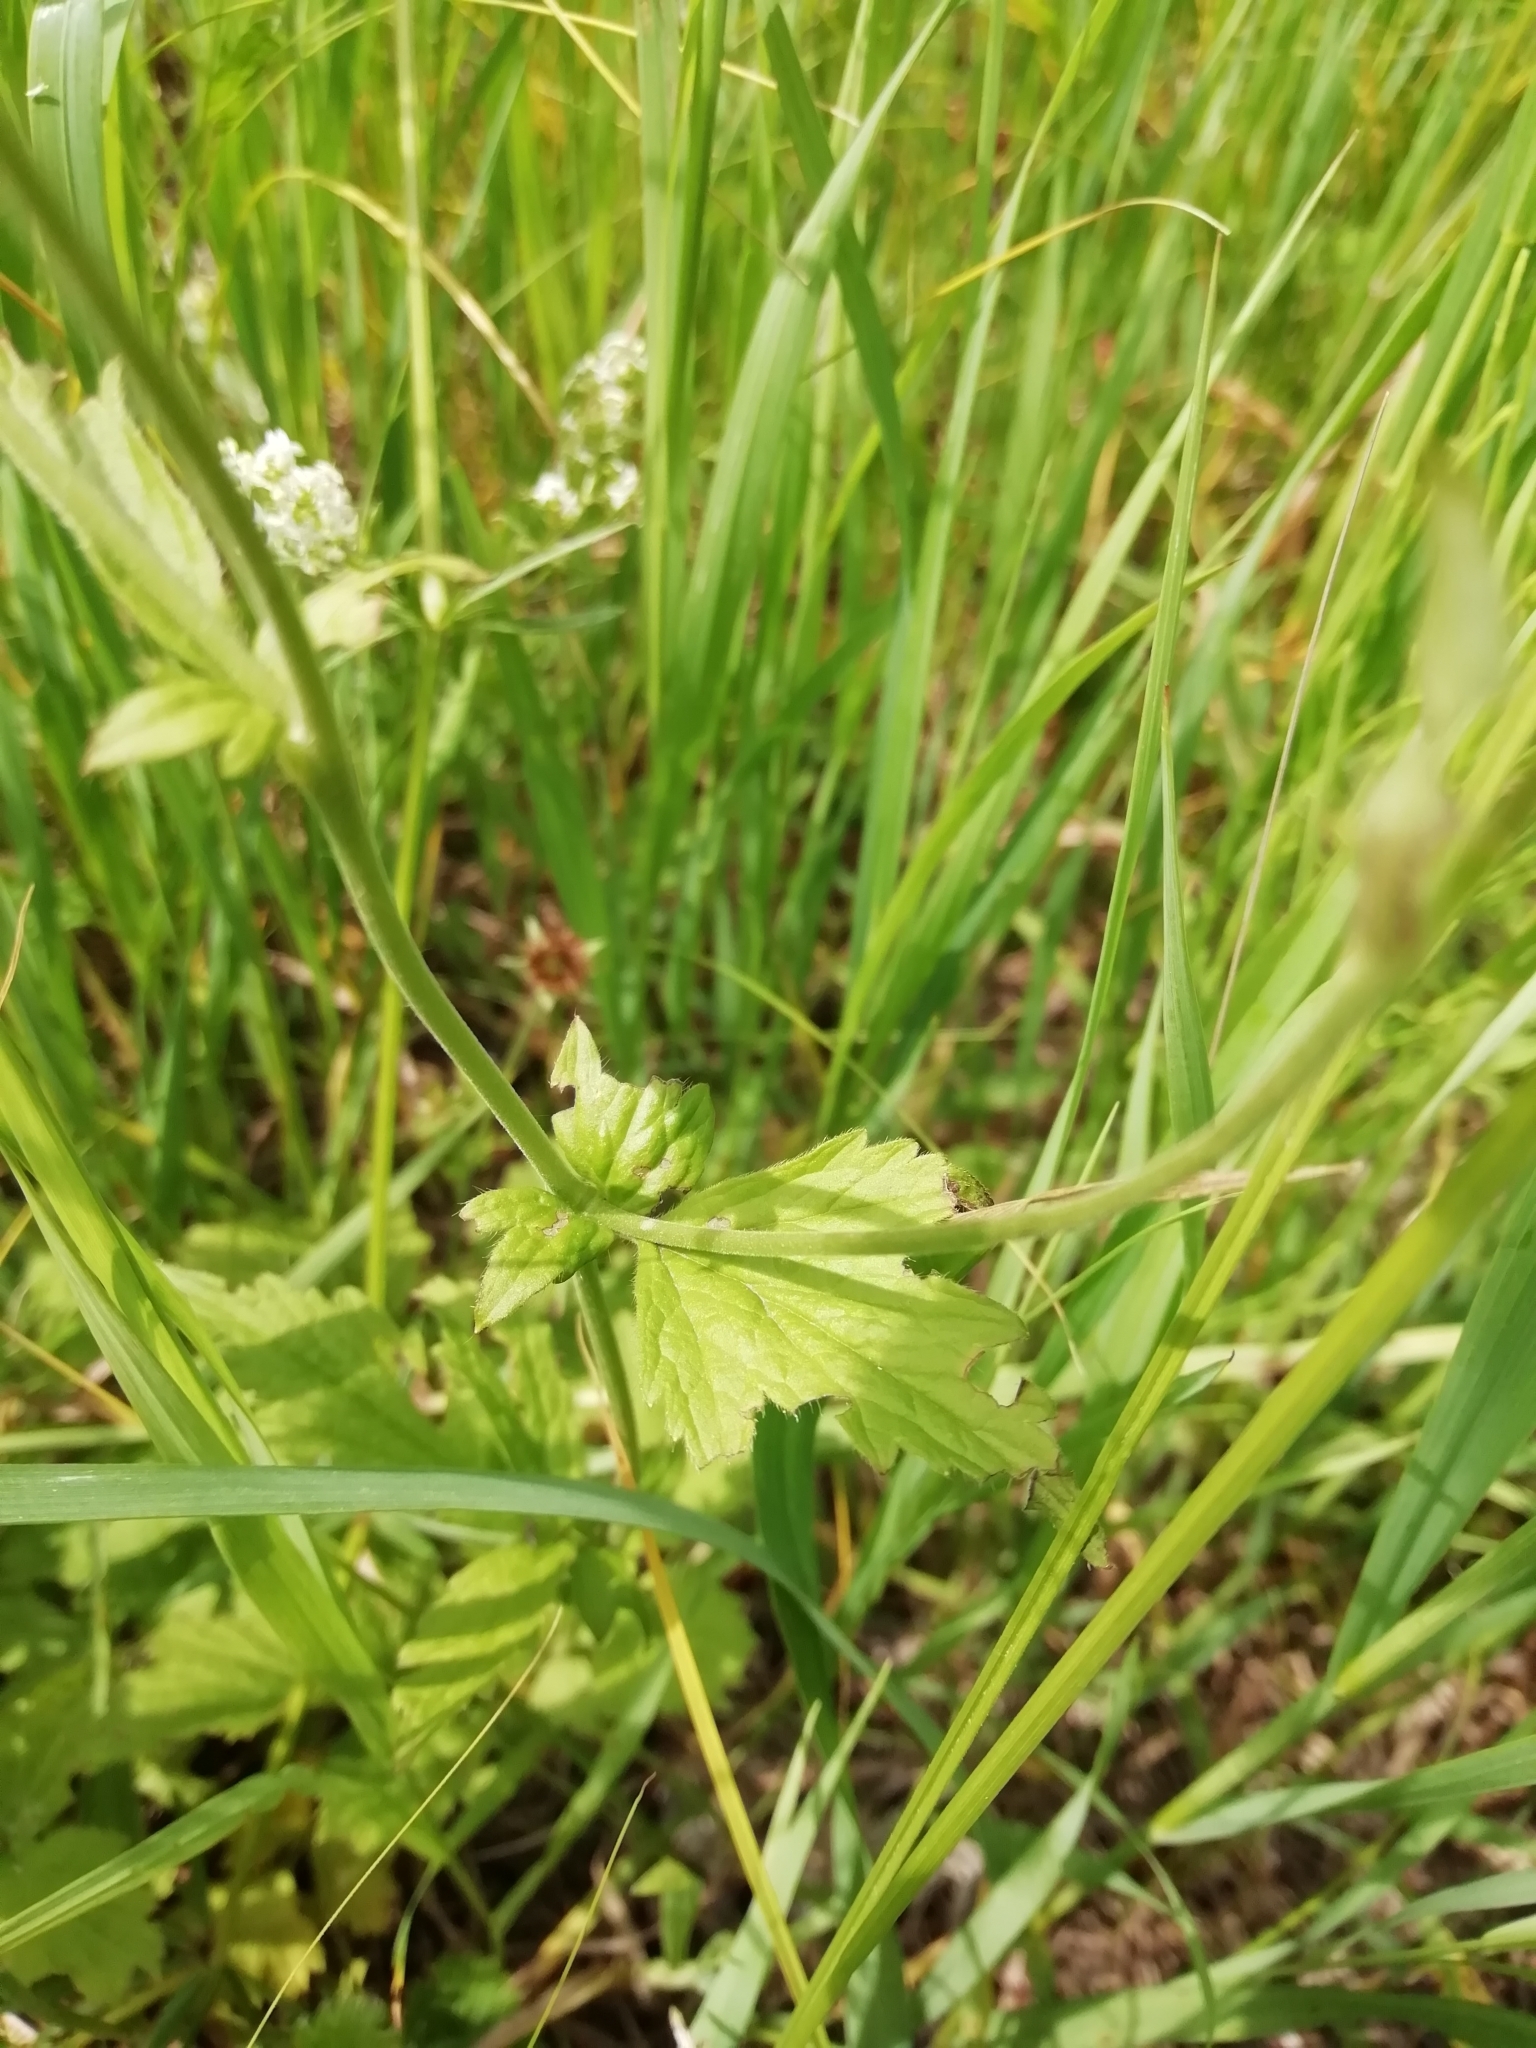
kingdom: Plantae
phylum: Tracheophyta
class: Magnoliopsida
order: Rosales
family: Rosaceae
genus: Geum
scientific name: Geum urbanum
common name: Wood avens
